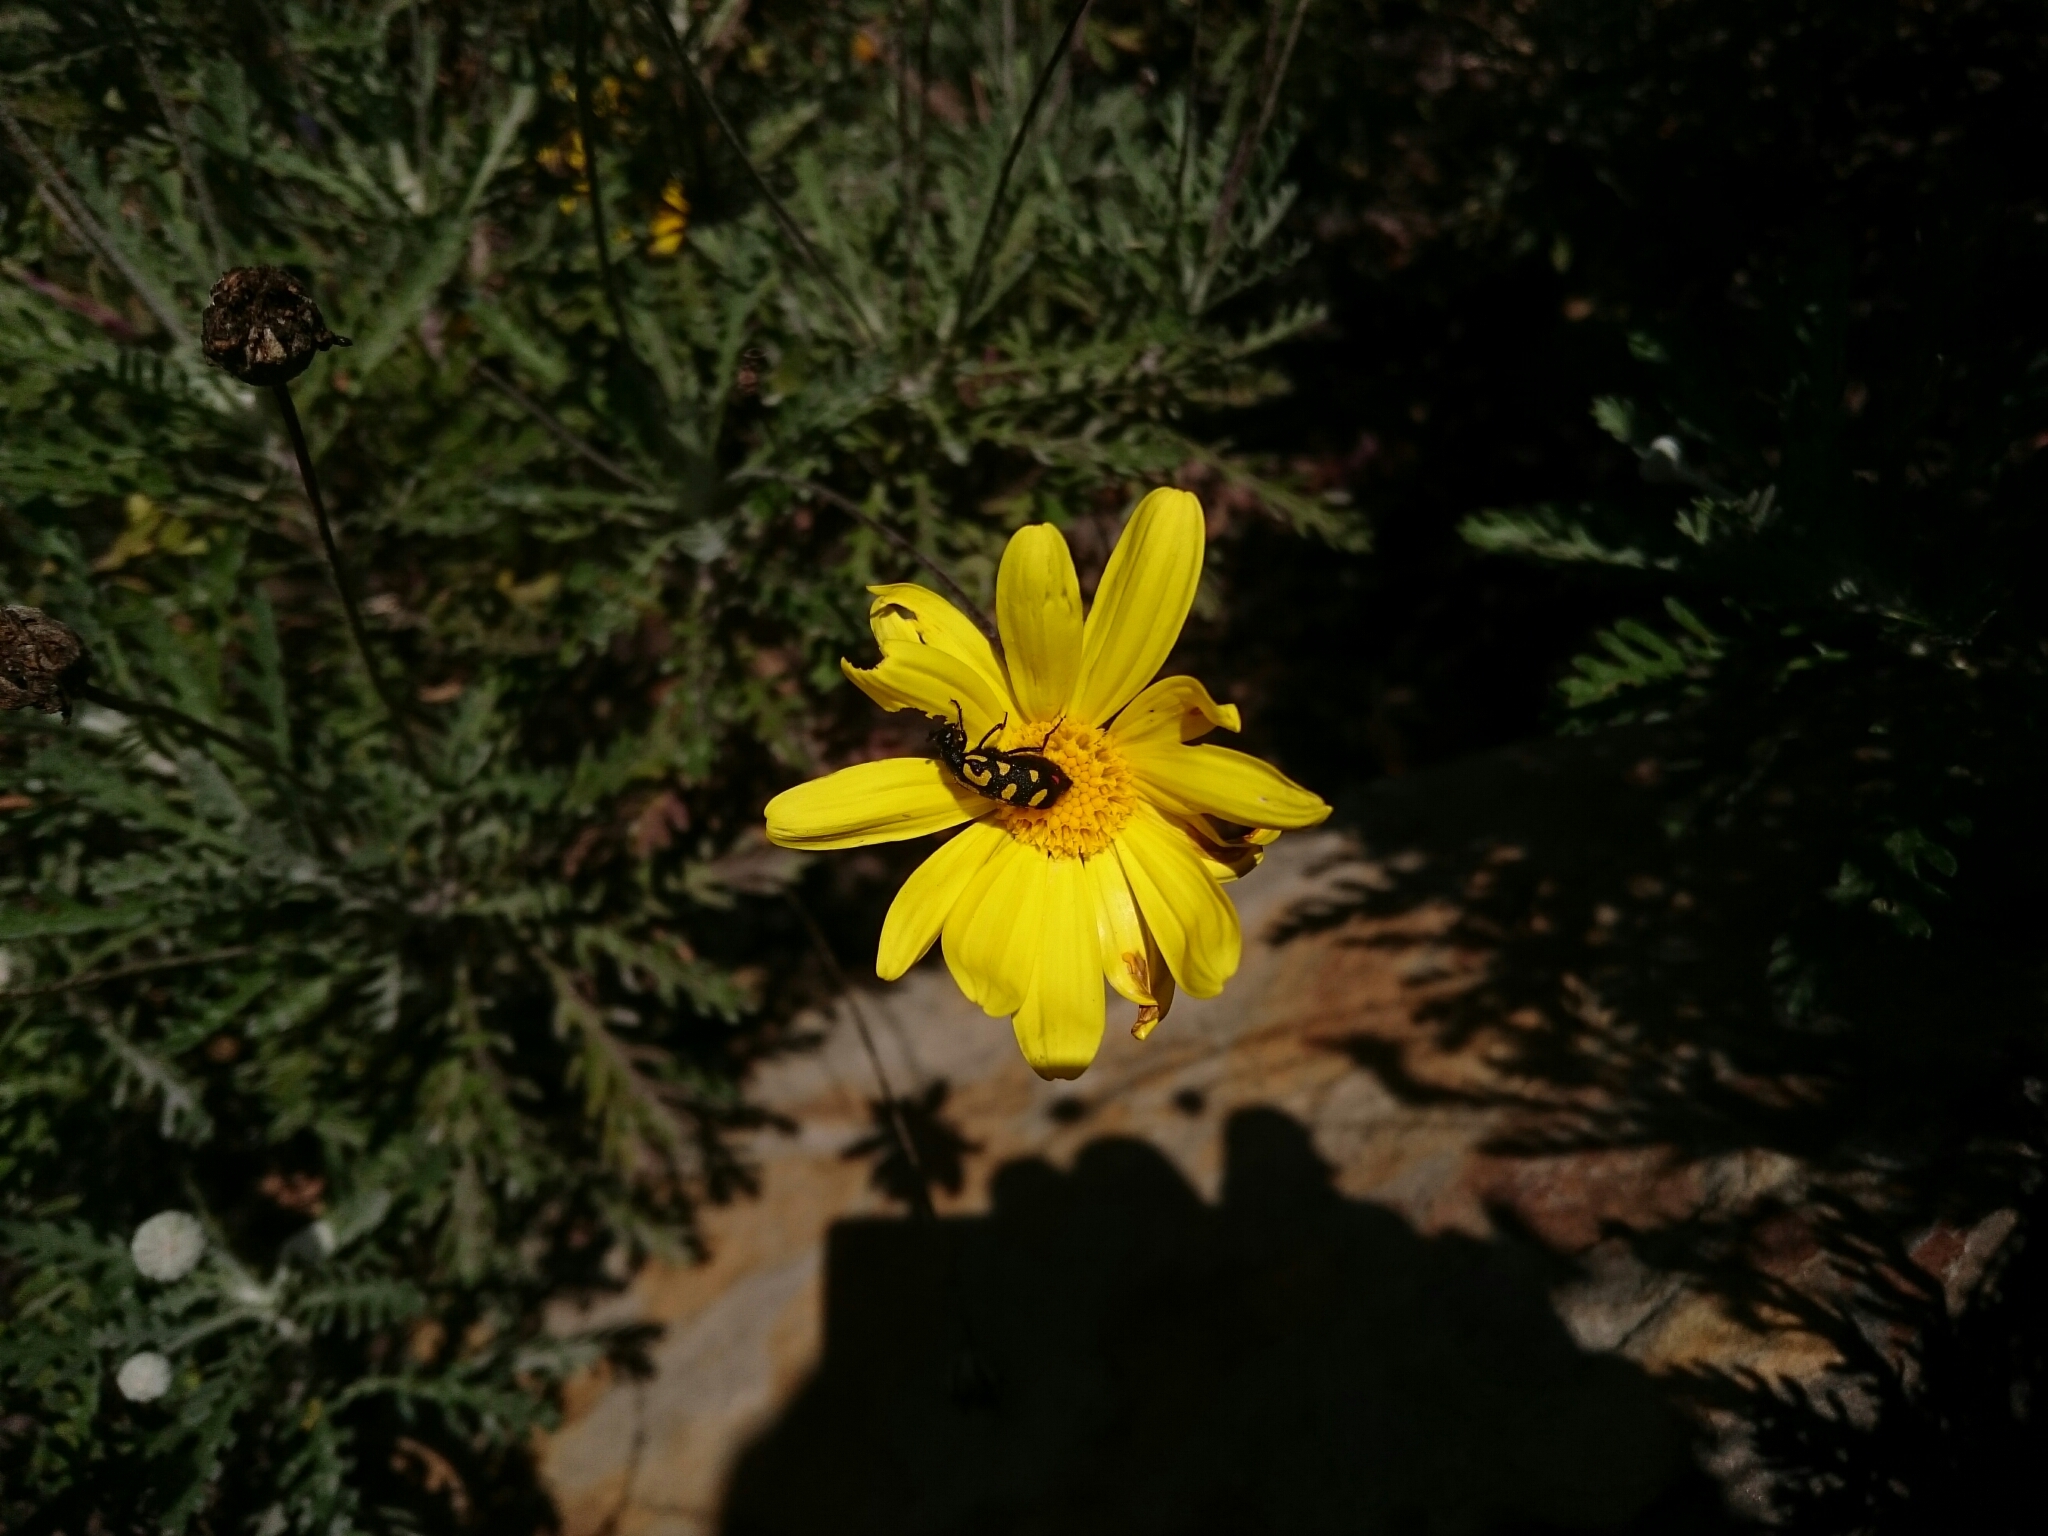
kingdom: Animalia
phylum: Arthropoda
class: Insecta
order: Coleoptera
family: Meloidae
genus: Ceroctis
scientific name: Ceroctis capensis
